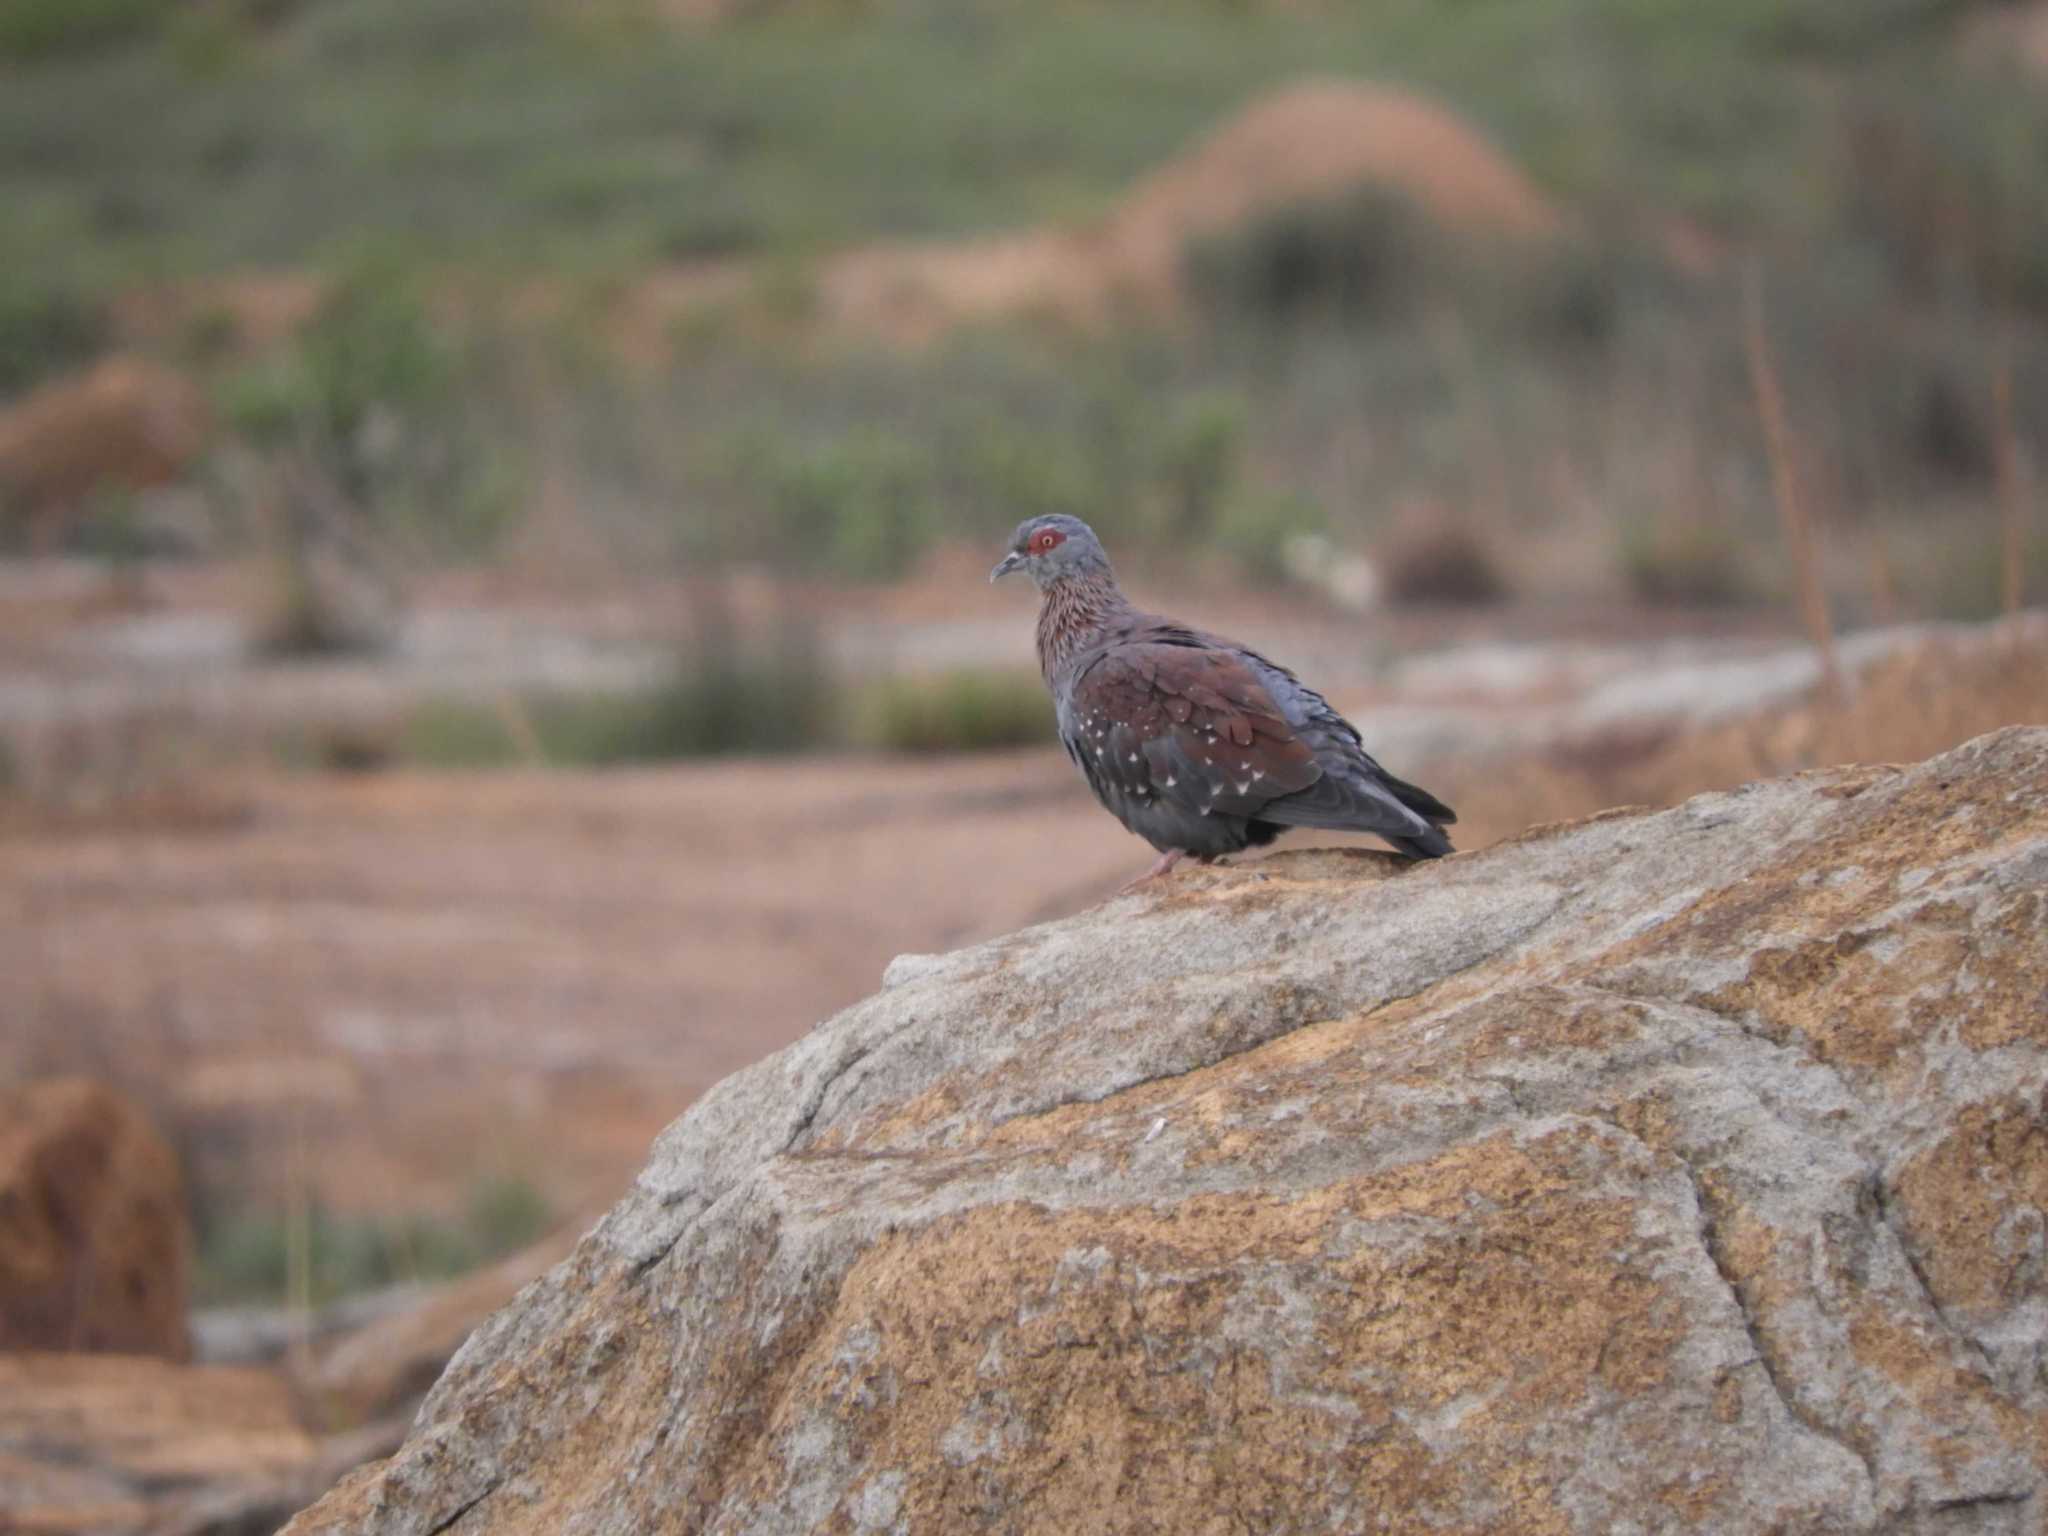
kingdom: Animalia
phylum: Chordata
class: Aves
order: Columbiformes
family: Columbidae
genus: Columba
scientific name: Columba guinea
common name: Speckled pigeon
